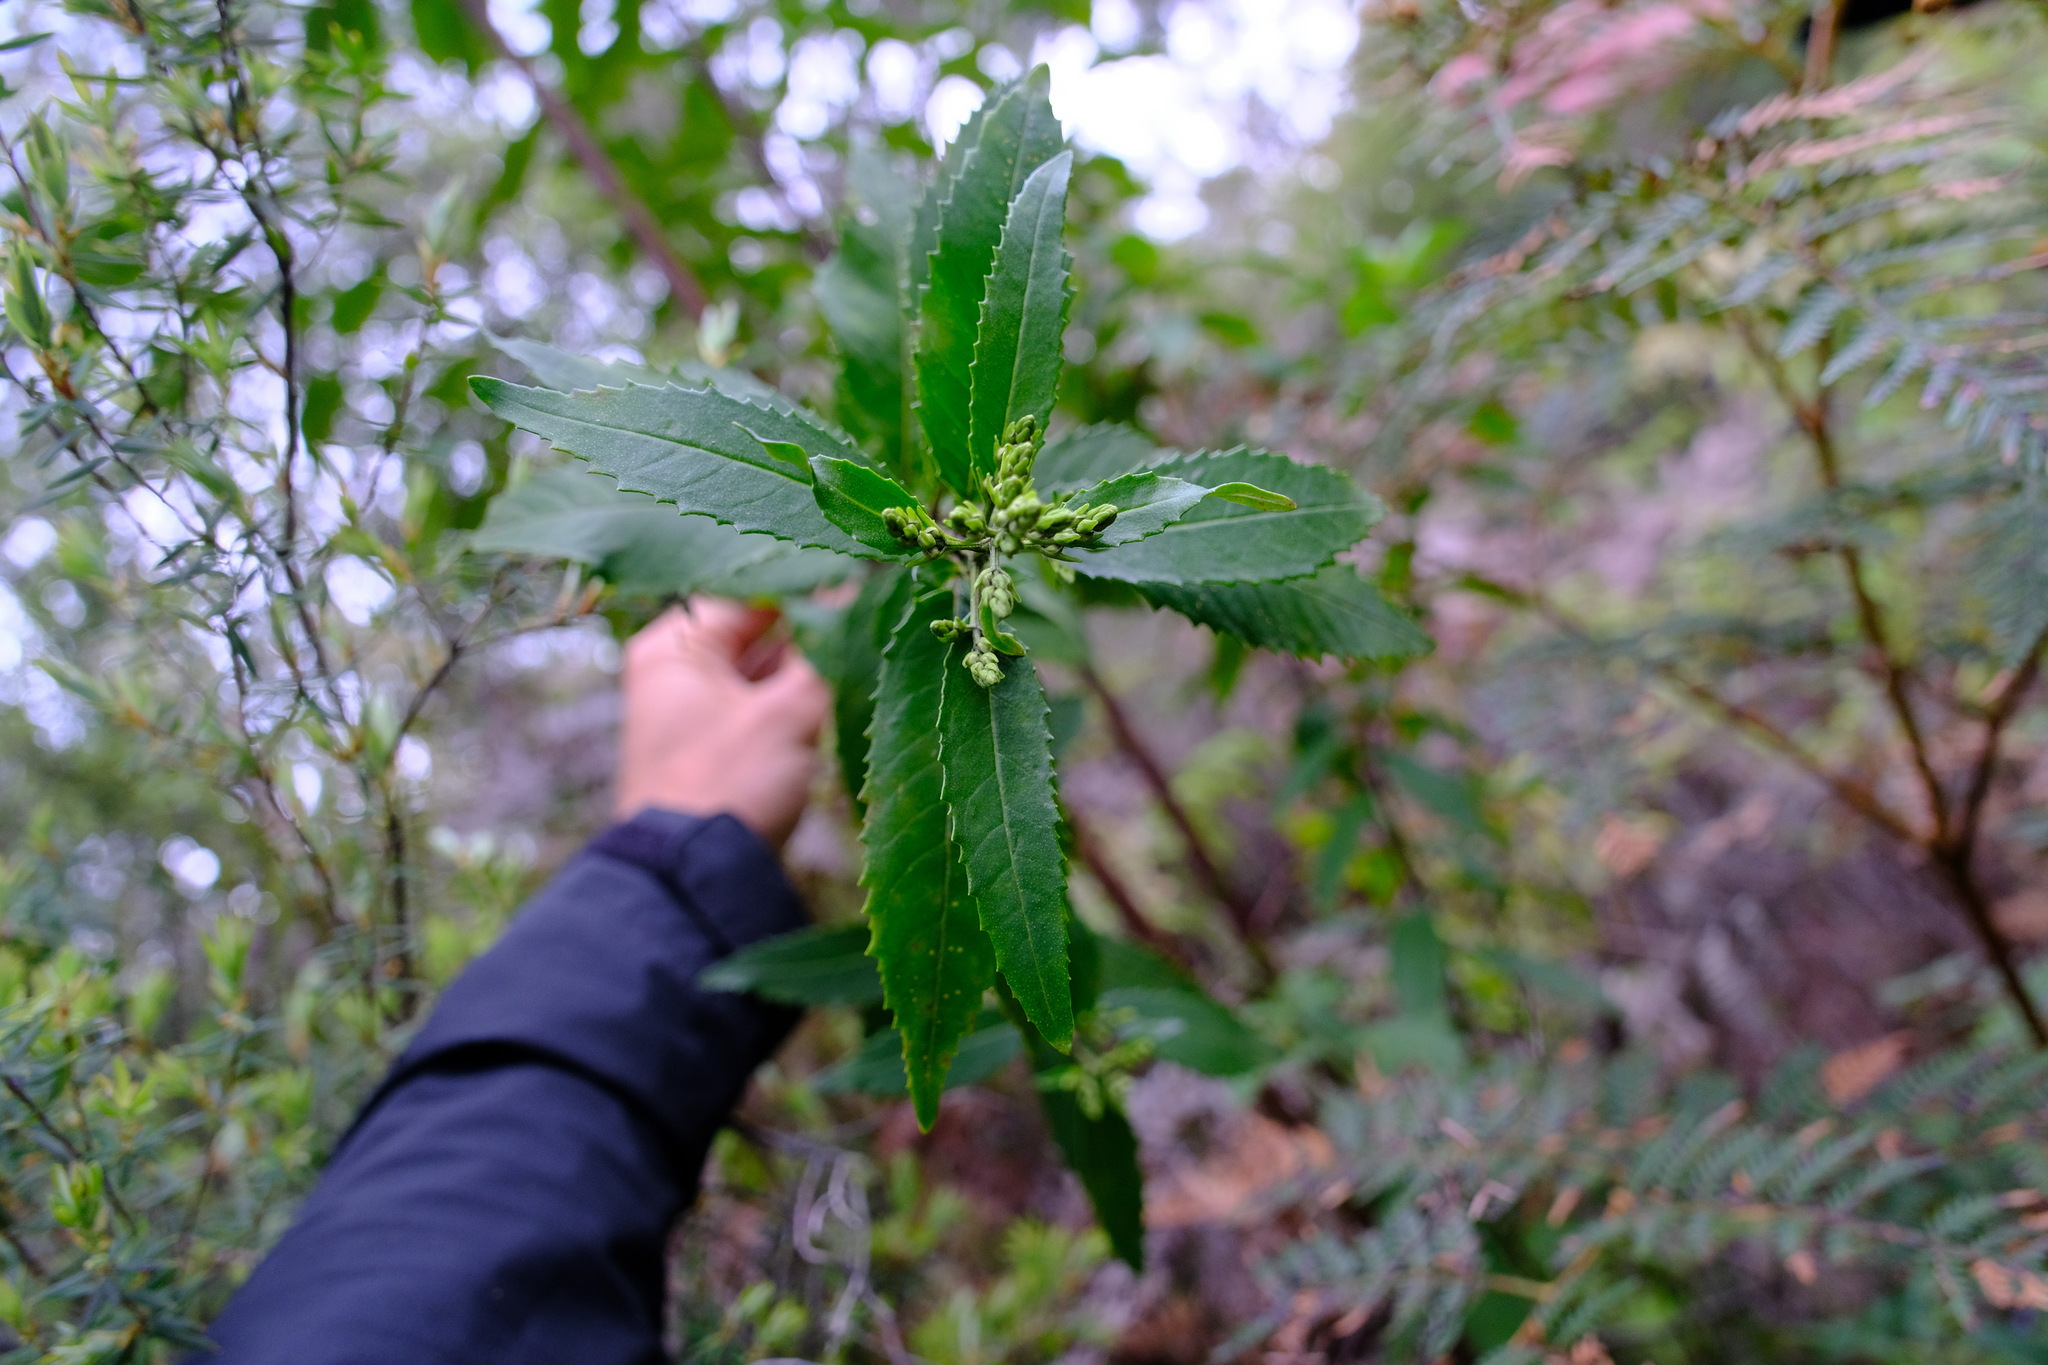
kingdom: Plantae
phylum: Tracheophyta
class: Magnoliopsida
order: Lamiales
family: Lamiaceae
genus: Prostanthera
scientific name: Prostanthera lasianthos
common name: Mountain-lilac
